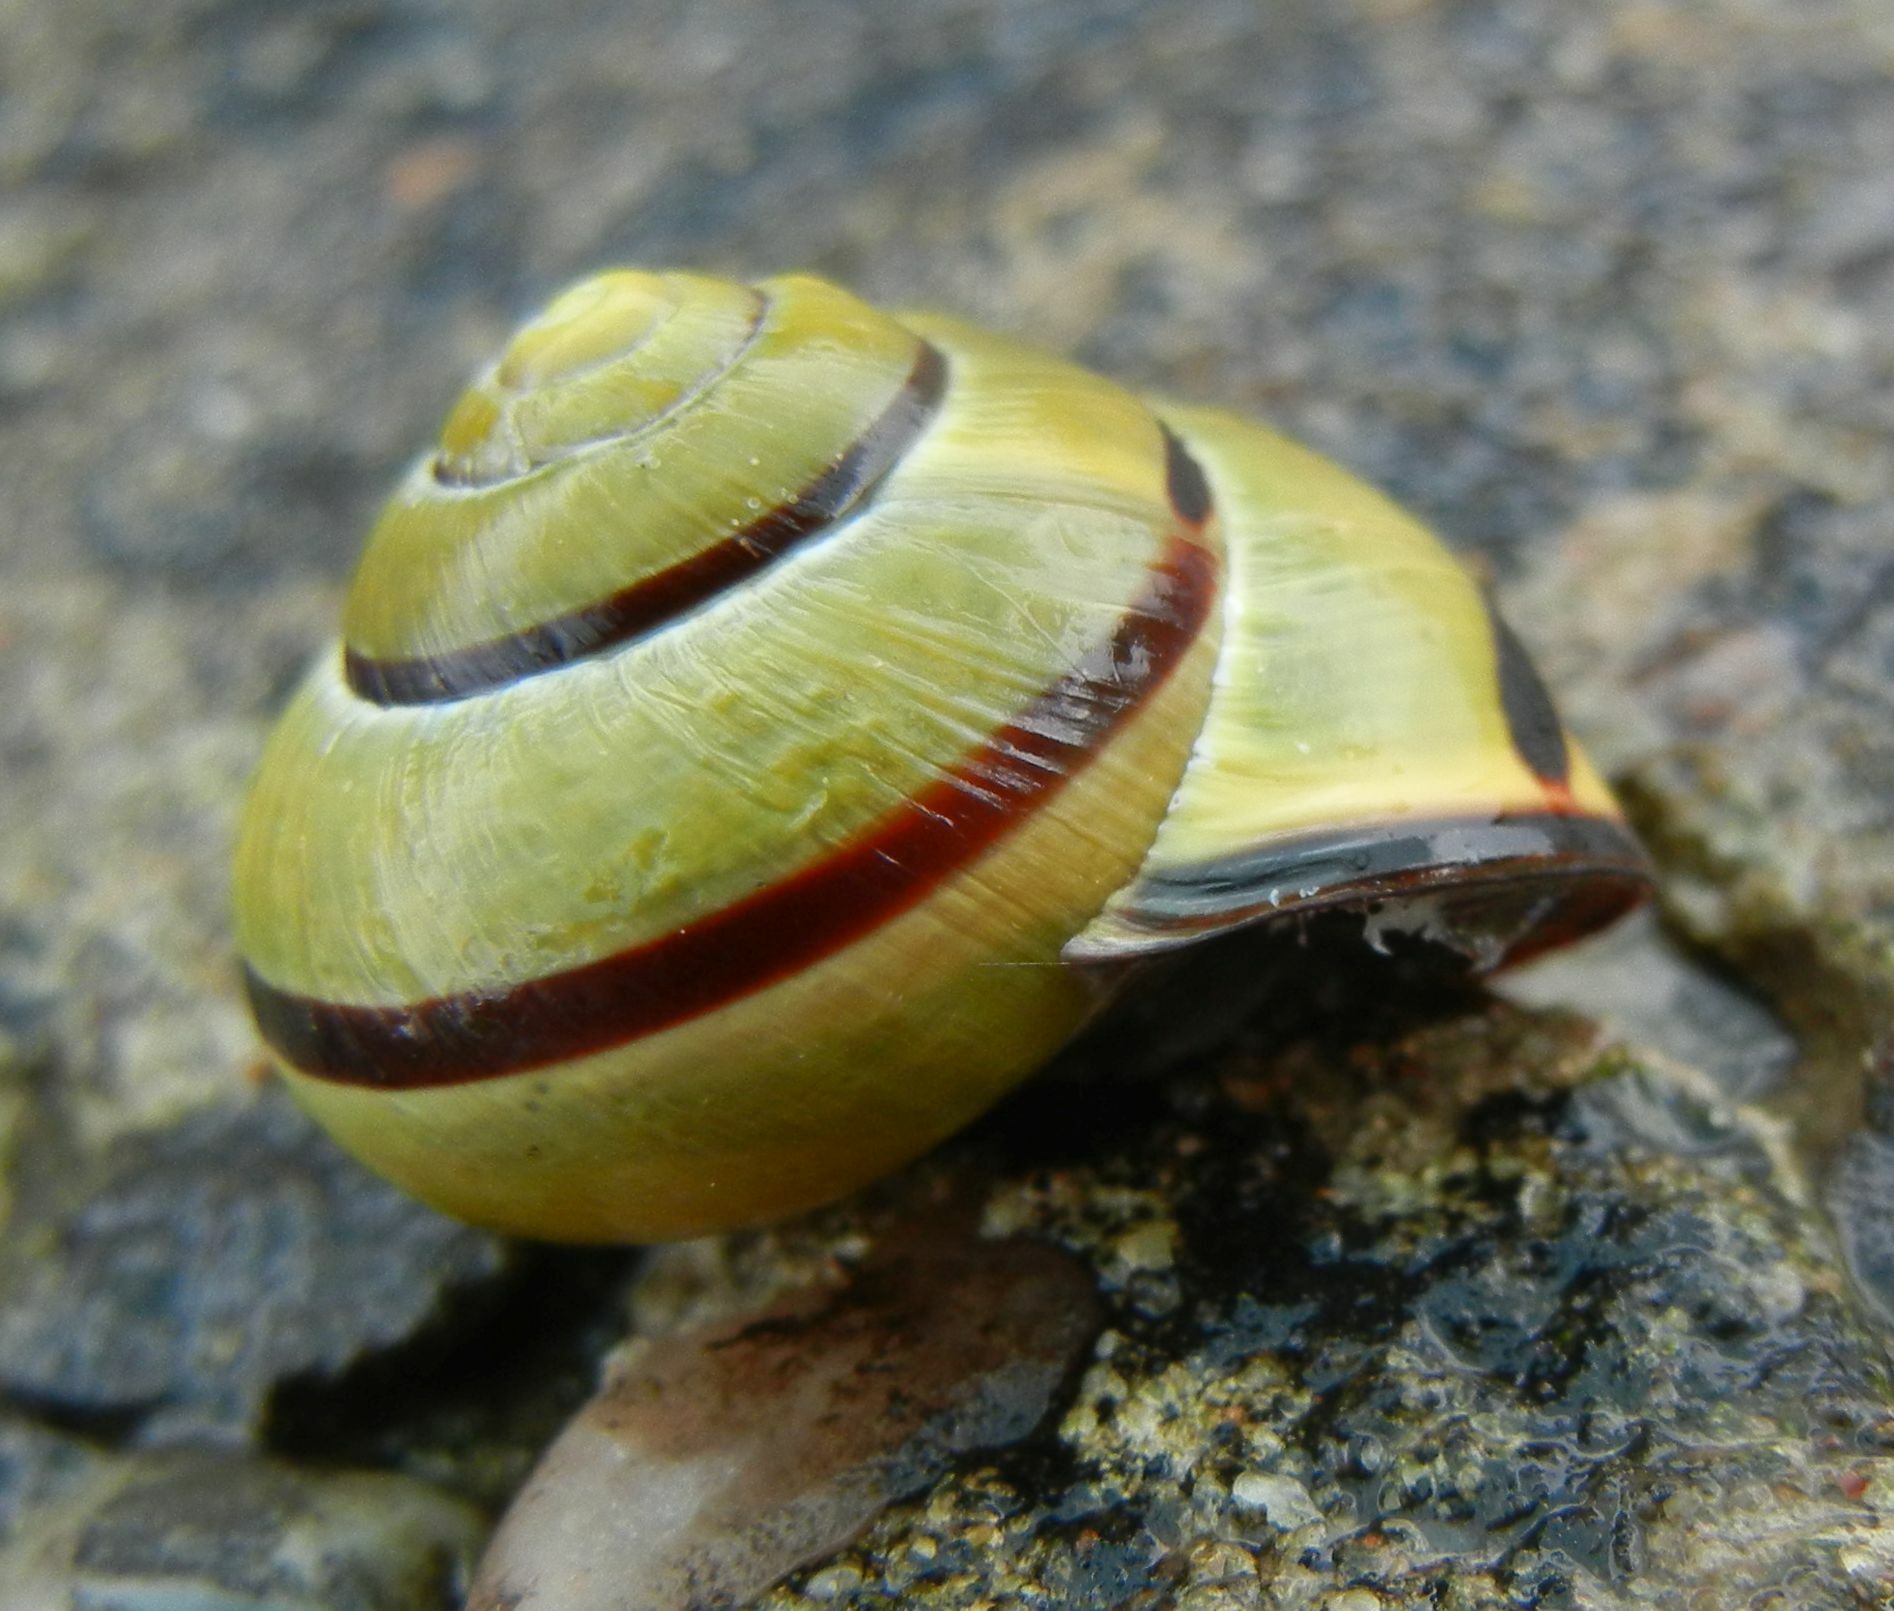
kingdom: Animalia
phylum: Mollusca
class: Gastropoda
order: Stylommatophora
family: Helicidae
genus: Cepaea
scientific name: Cepaea nemoralis
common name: Grovesnail
